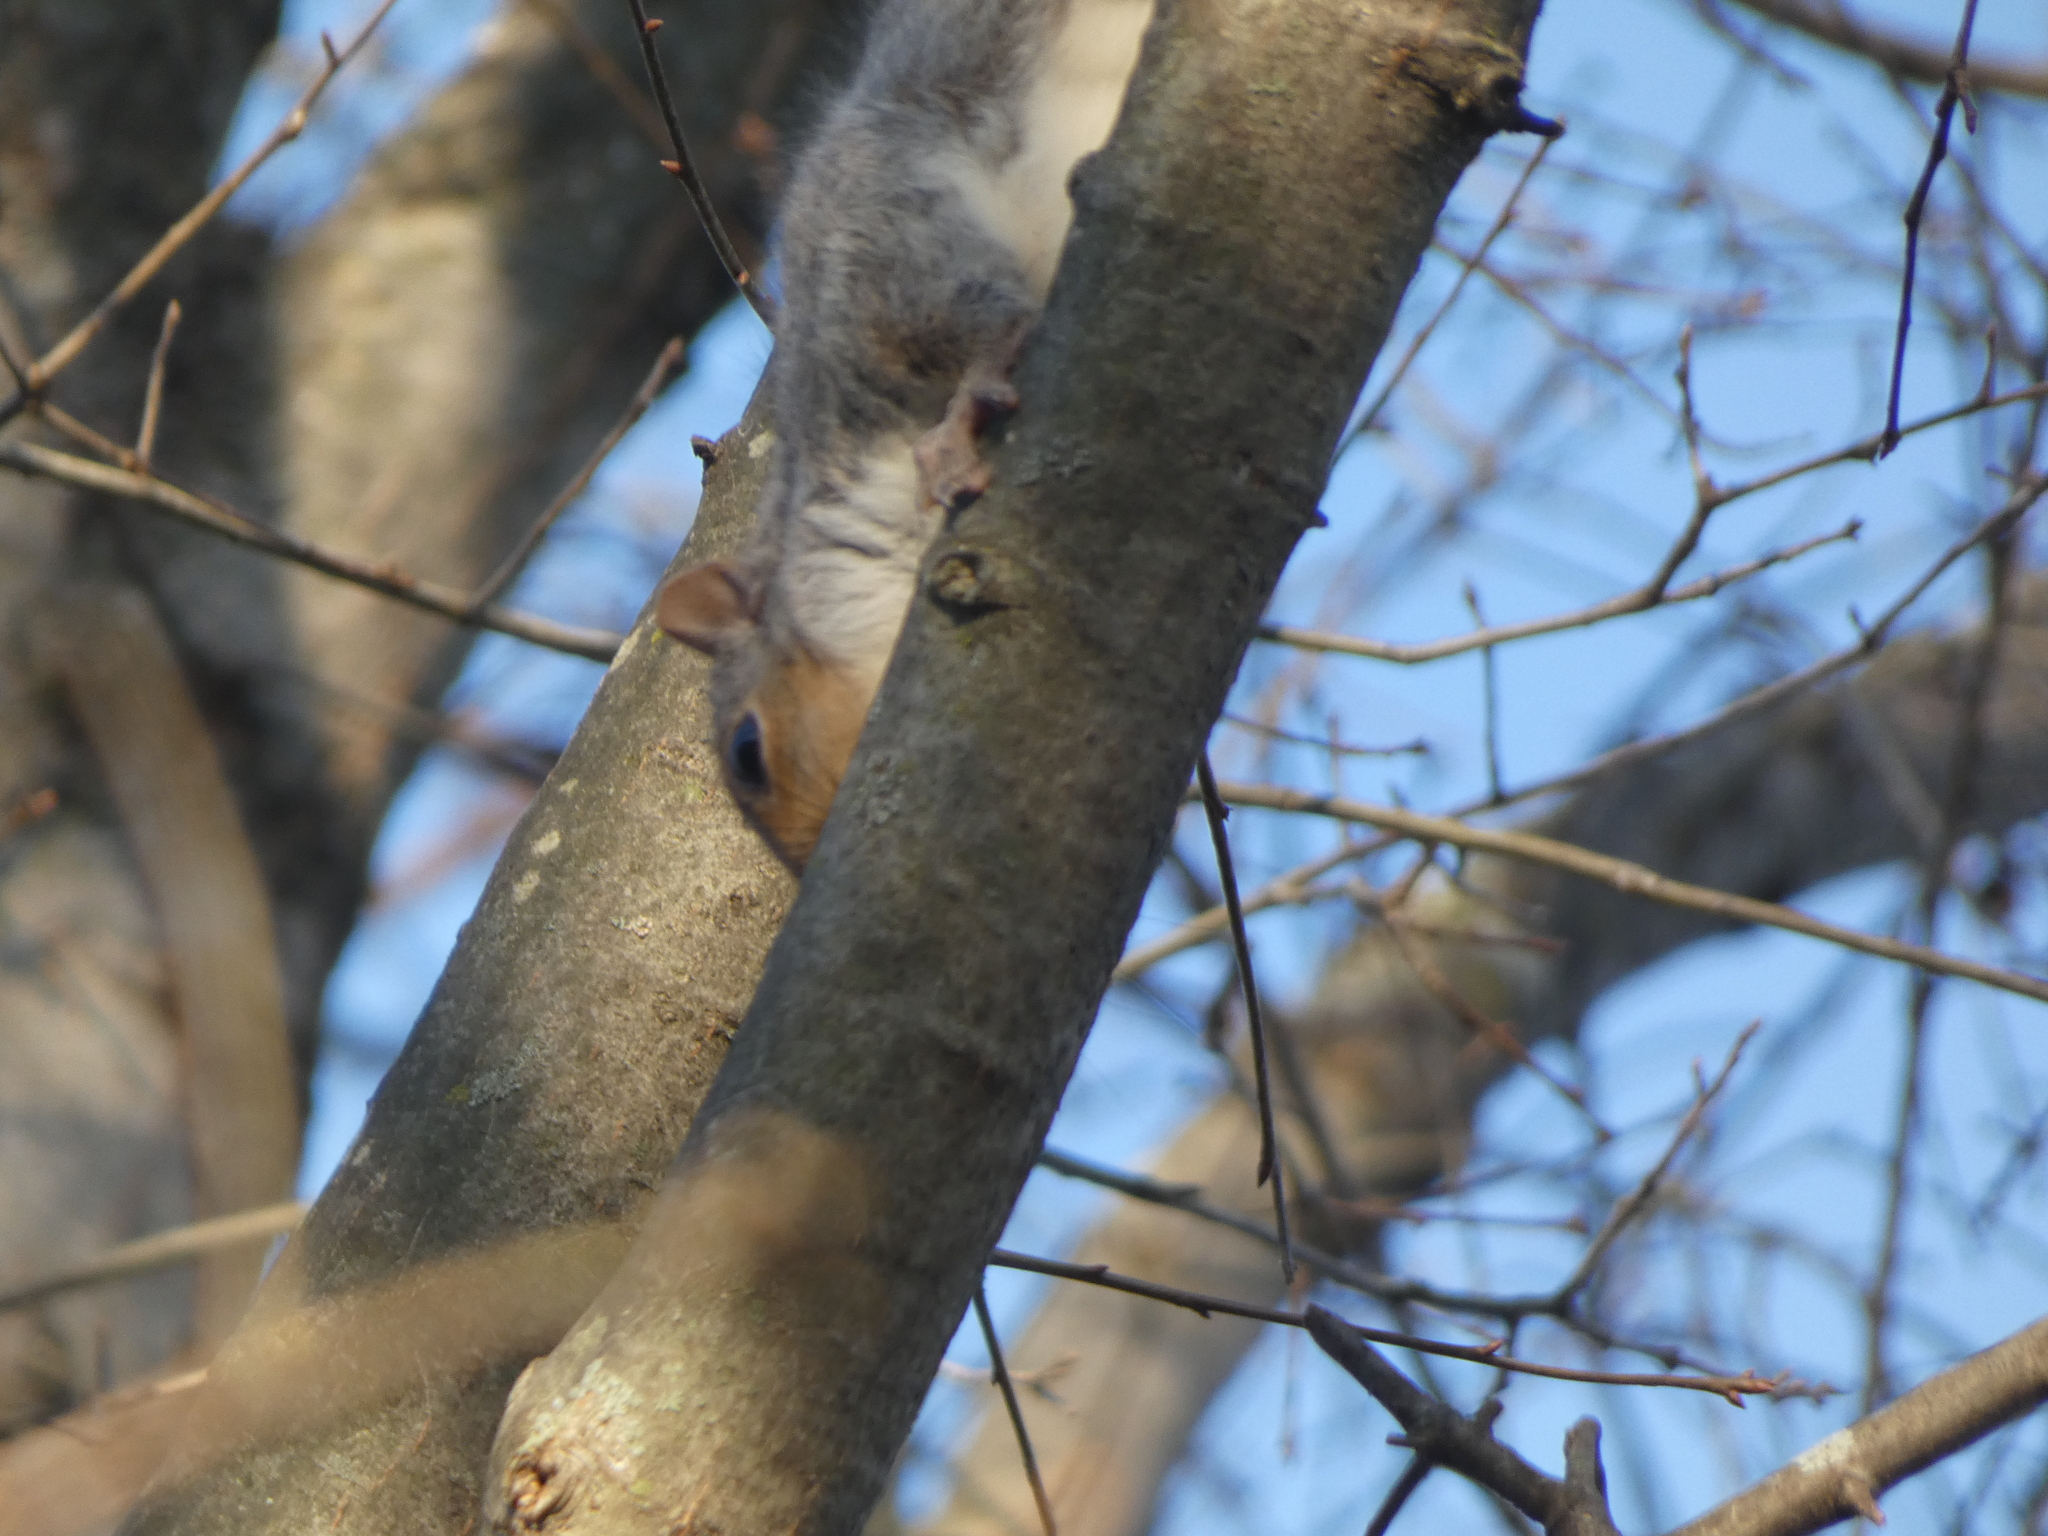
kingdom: Animalia
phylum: Chordata
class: Mammalia
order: Rodentia
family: Sciuridae
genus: Sciurus
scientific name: Sciurus carolinensis
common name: Eastern gray squirrel
